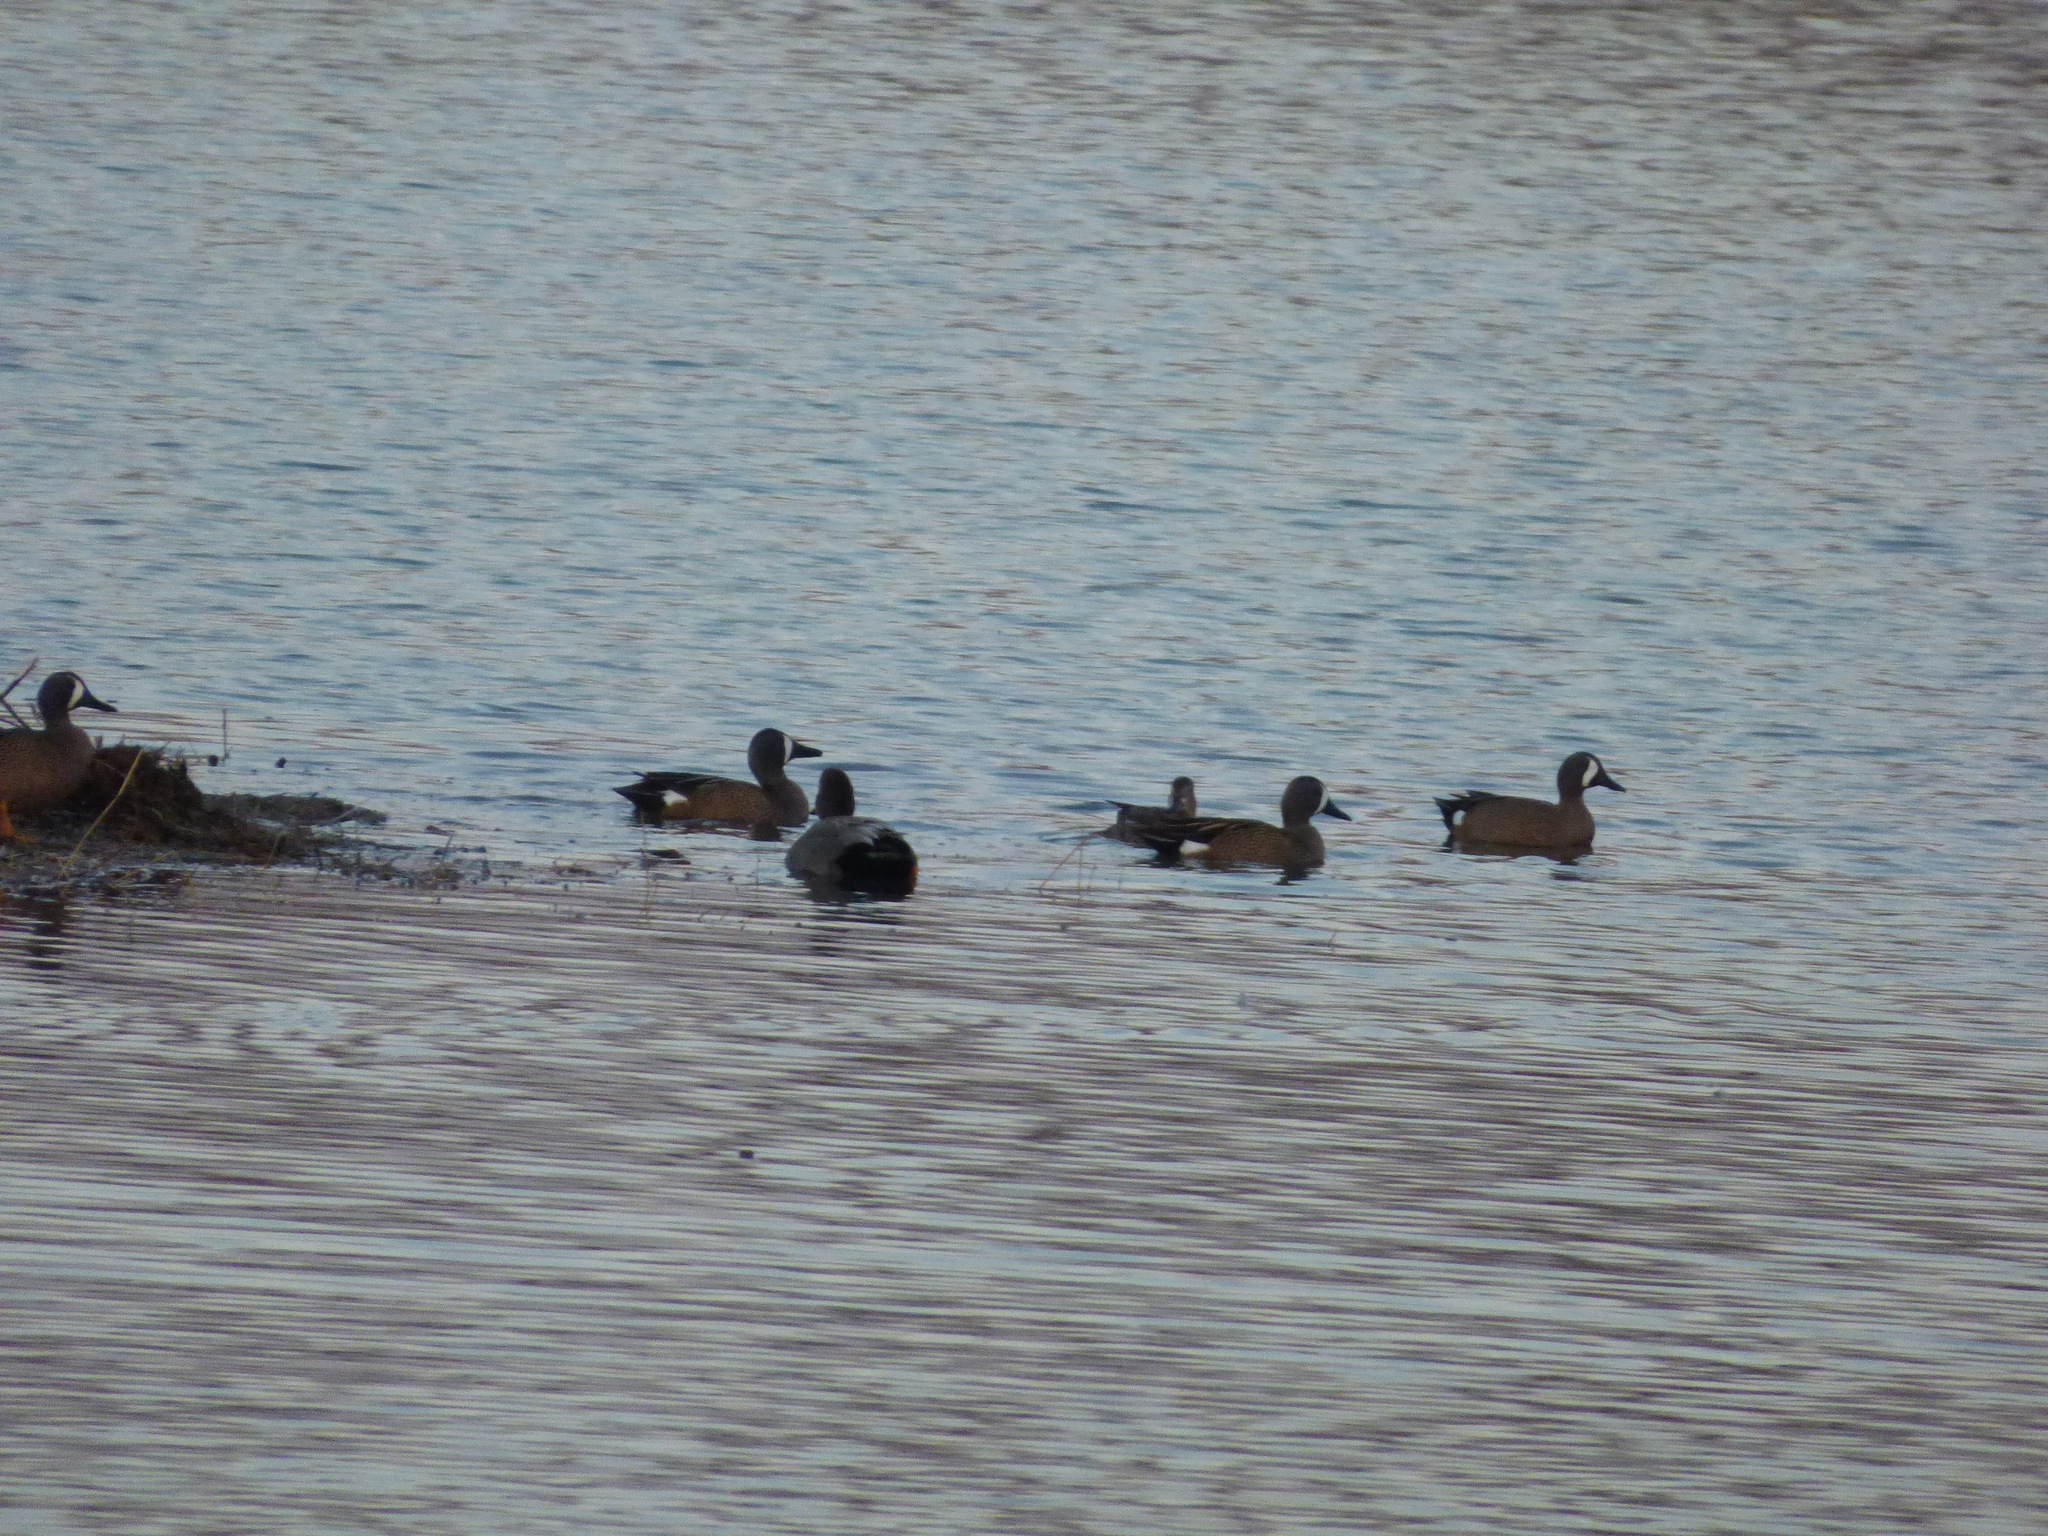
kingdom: Animalia
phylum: Chordata
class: Aves
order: Anseriformes
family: Anatidae
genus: Spatula
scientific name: Spatula discors
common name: Blue-winged teal
